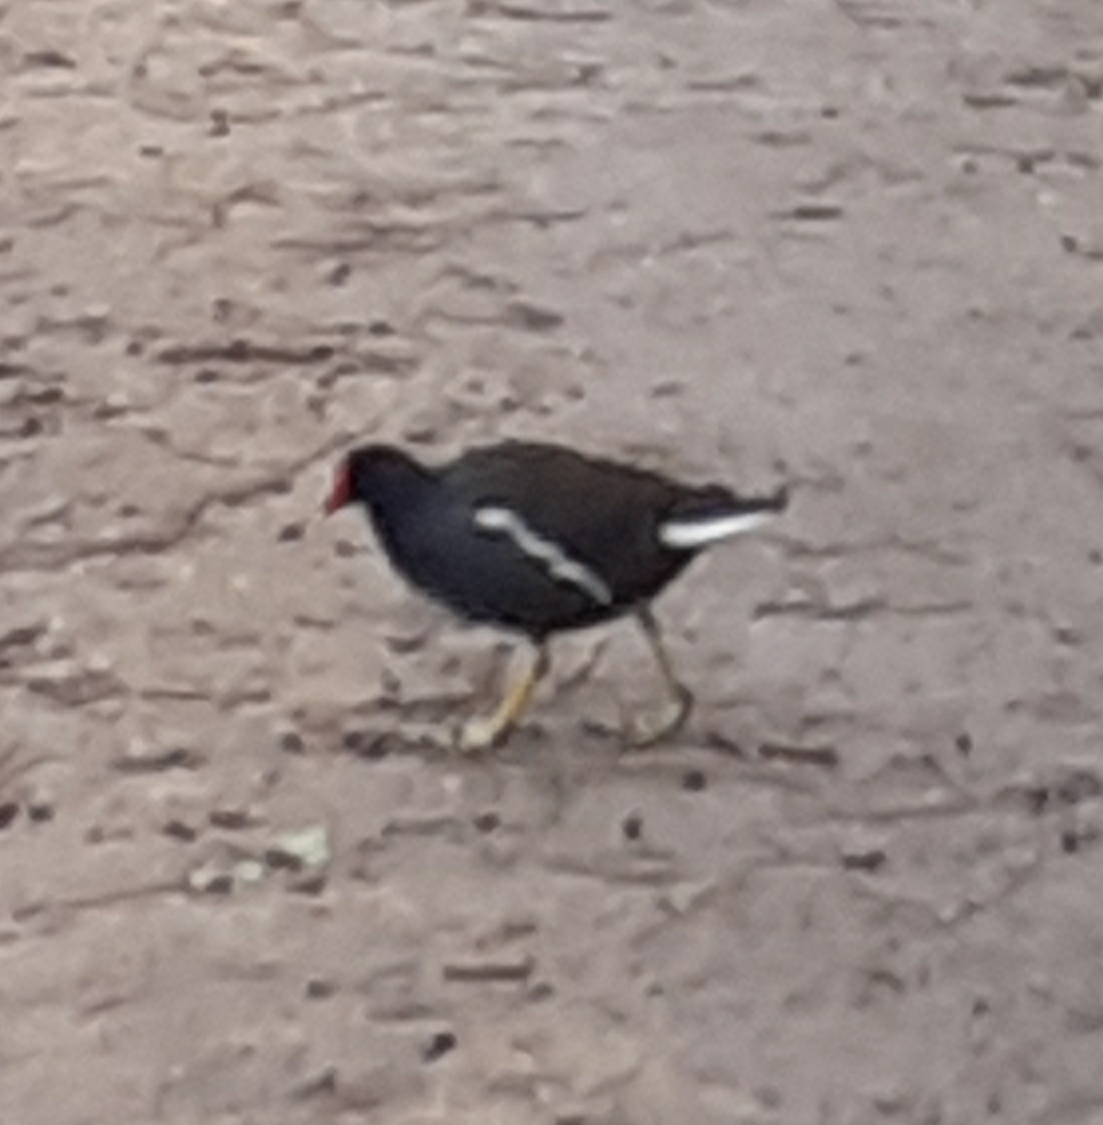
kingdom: Animalia
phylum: Chordata
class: Aves
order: Gruiformes
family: Rallidae
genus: Gallinula
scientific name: Gallinula chloropus
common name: Common moorhen
